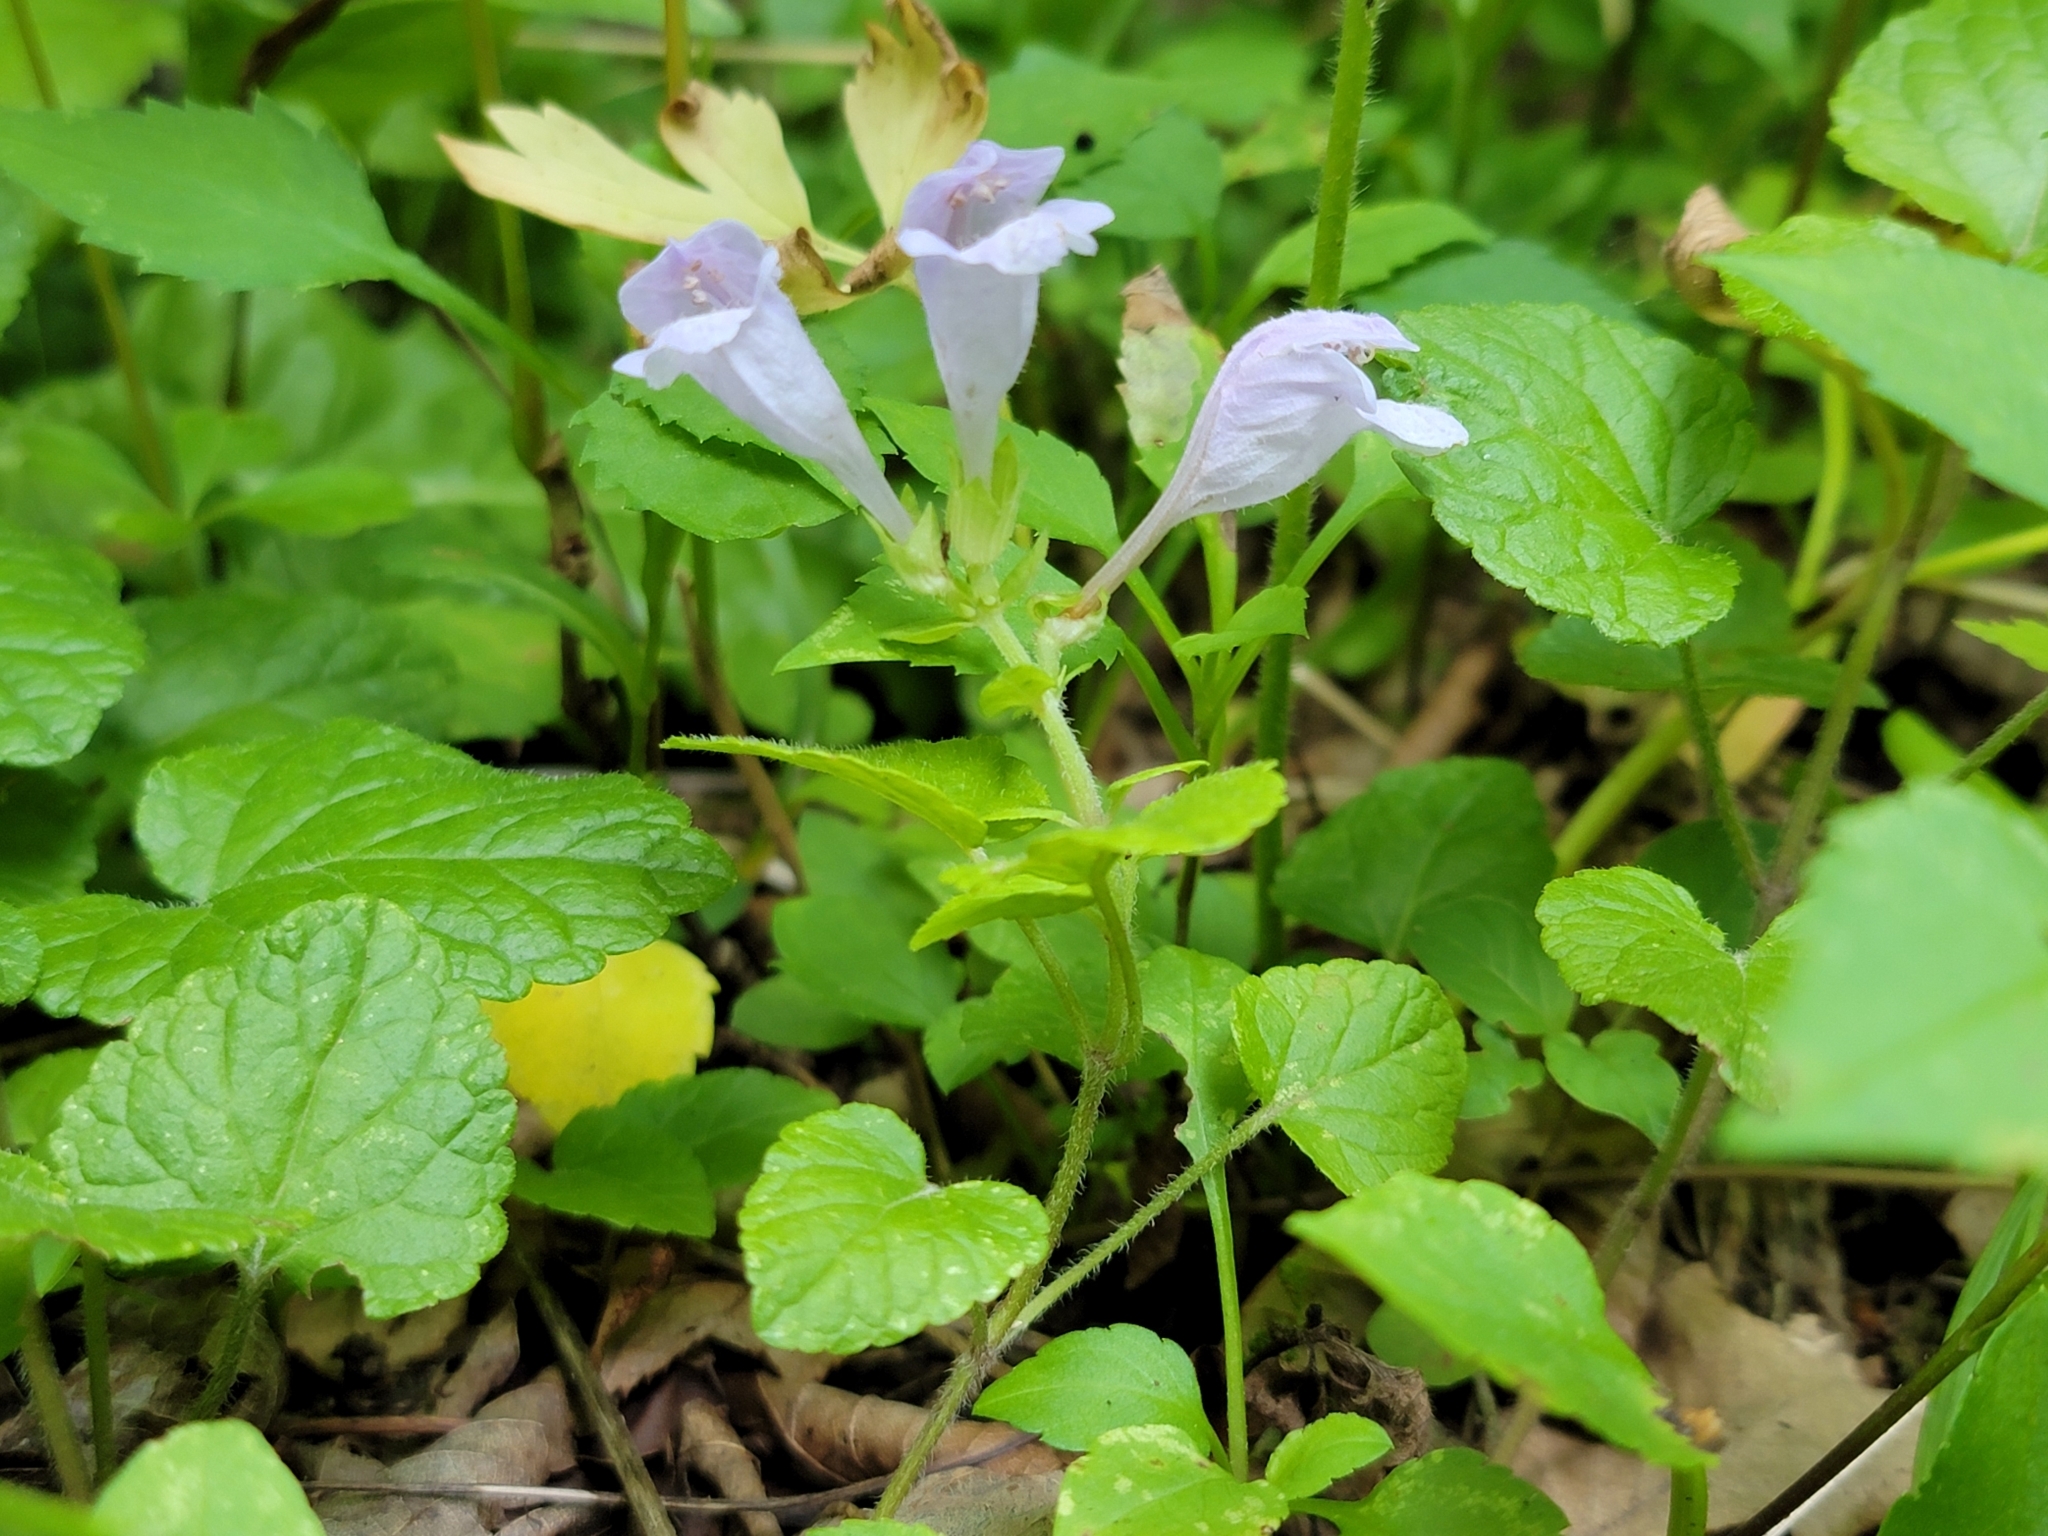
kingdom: Plantae
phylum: Tracheophyta
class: Magnoliopsida
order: Lamiales
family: Lamiaceae
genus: Meehania
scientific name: Meehania cordata
